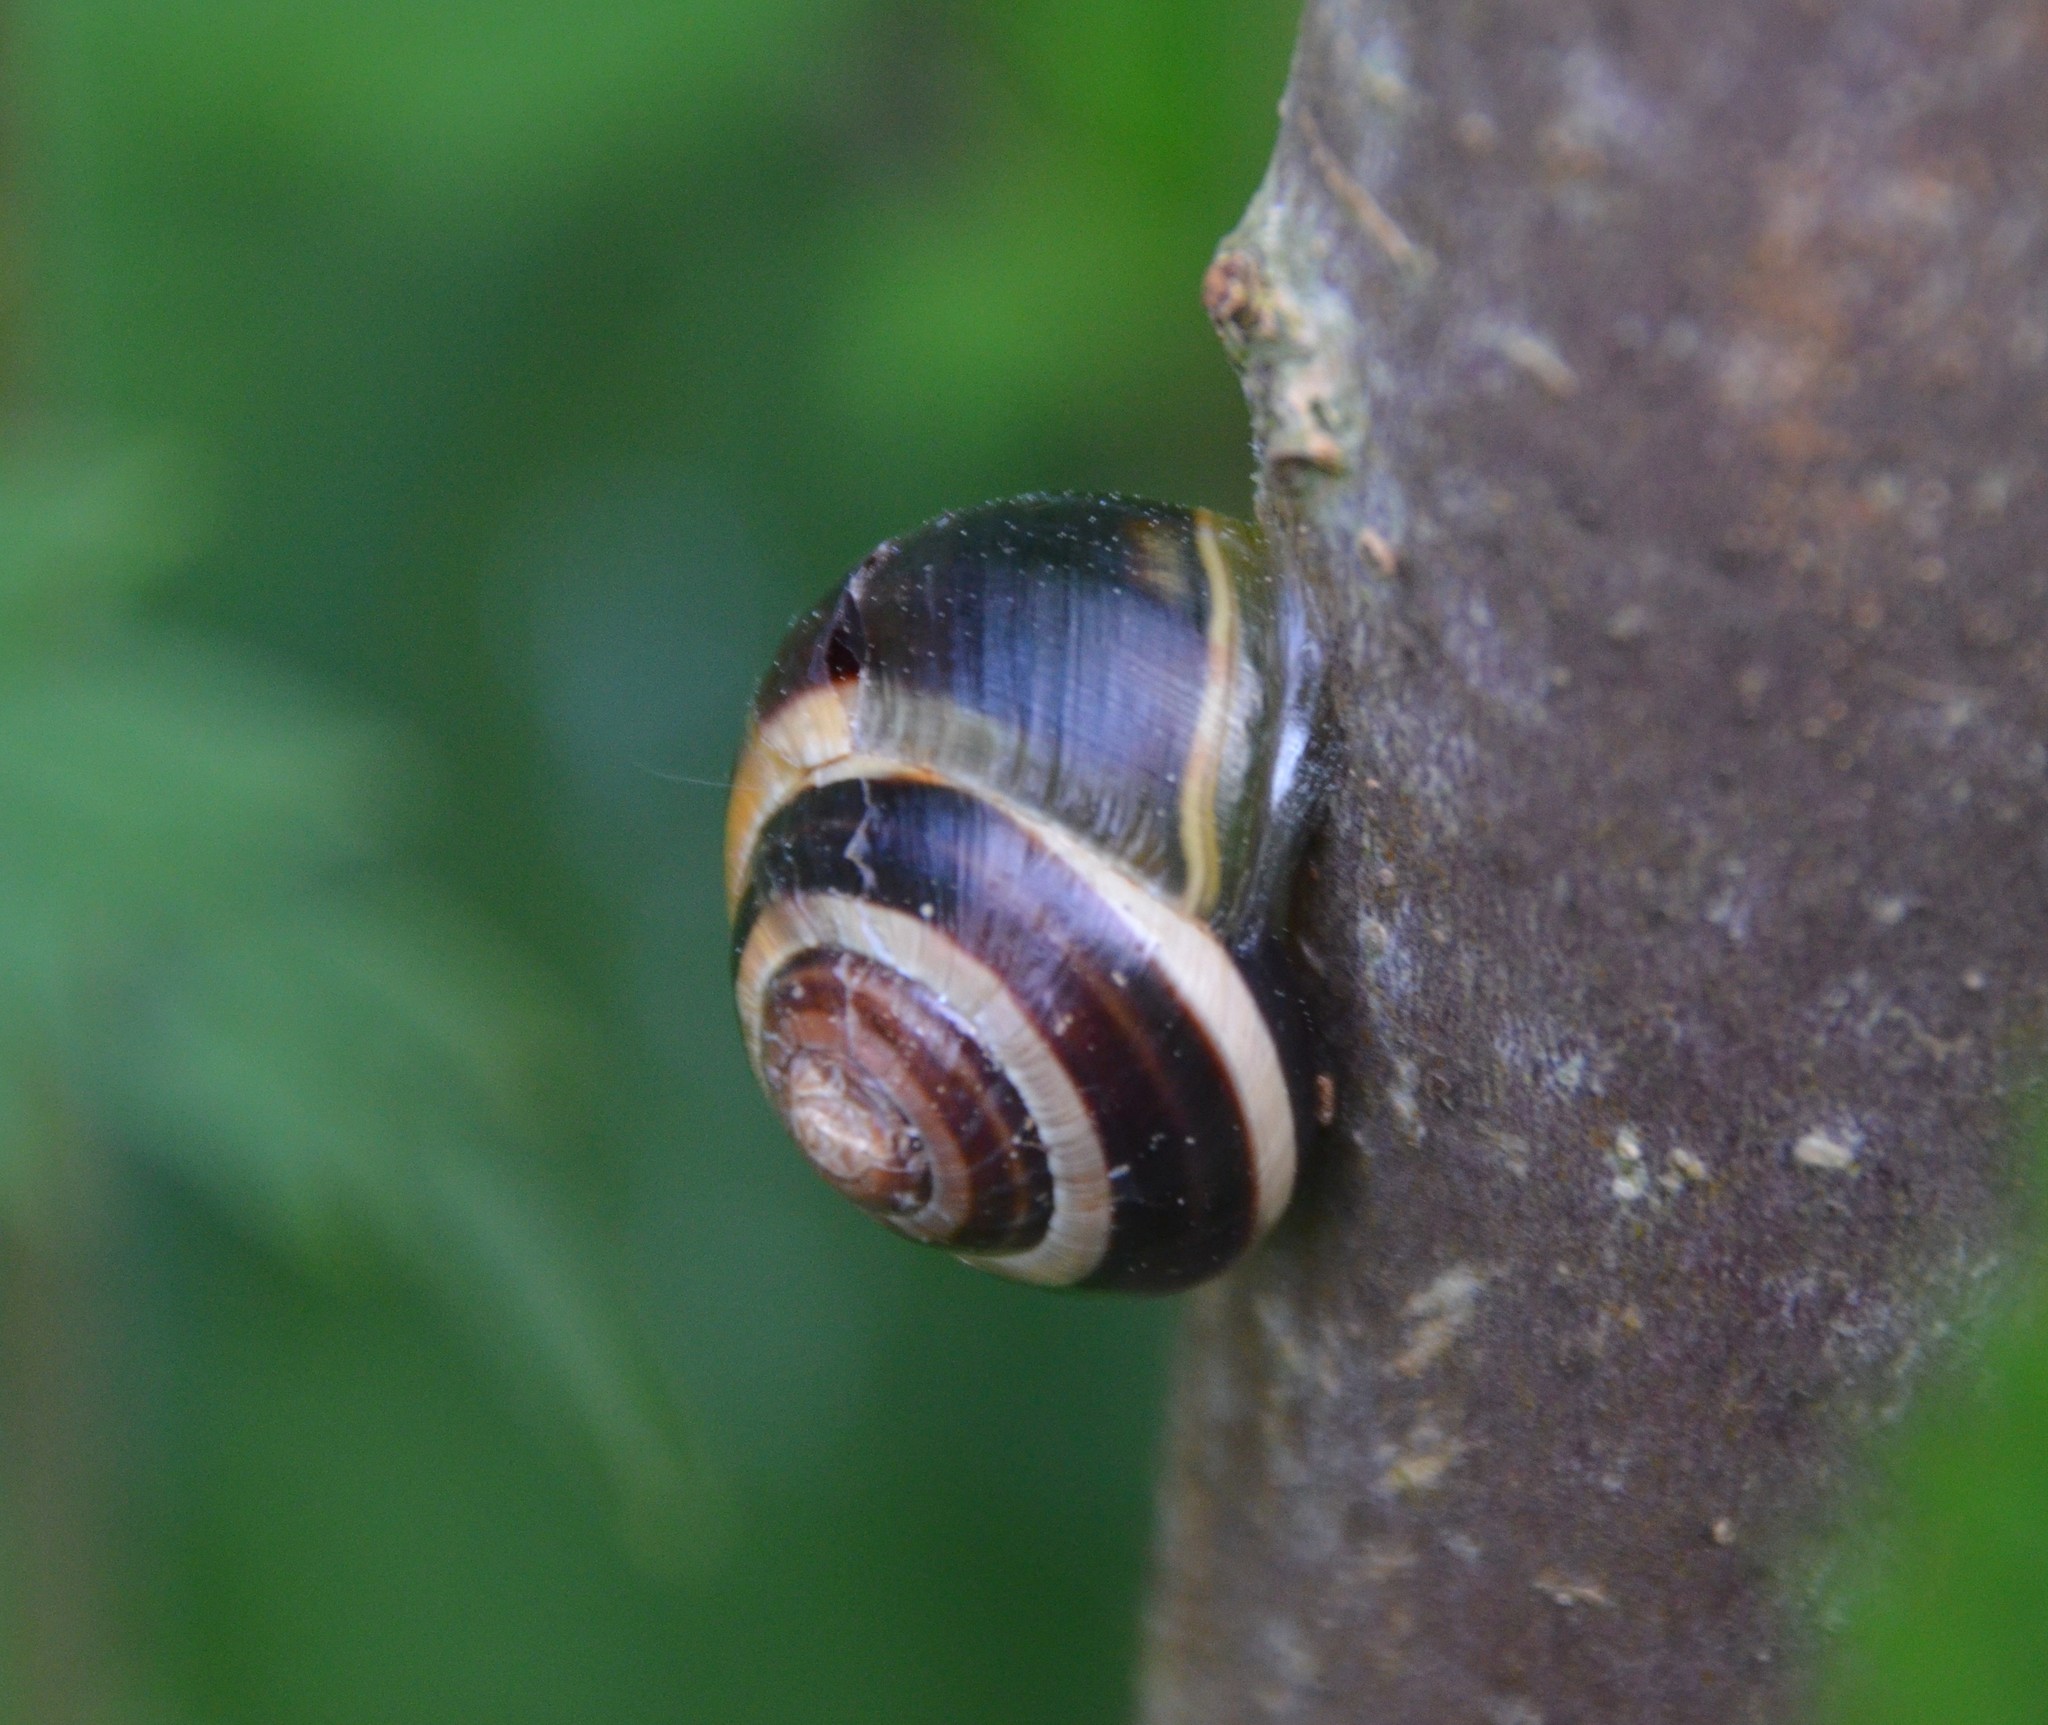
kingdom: Animalia
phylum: Mollusca
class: Gastropoda
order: Stylommatophora
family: Helicidae
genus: Cepaea
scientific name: Cepaea
